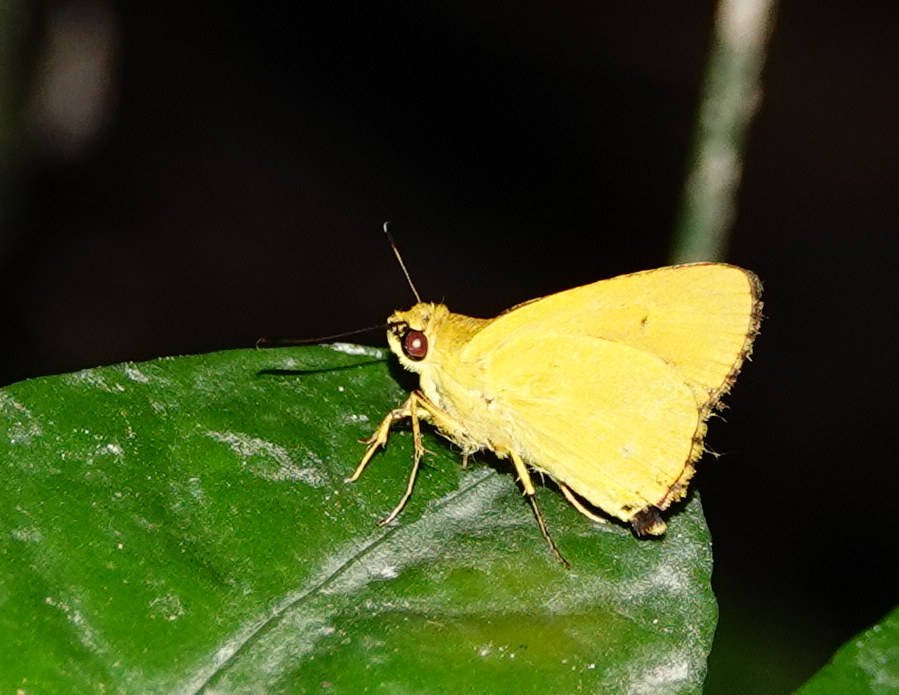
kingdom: Animalia
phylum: Arthropoda
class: Insecta
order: Lepidoptera
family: Hesperiidae
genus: Cupitha
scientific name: Cupitha purreea
